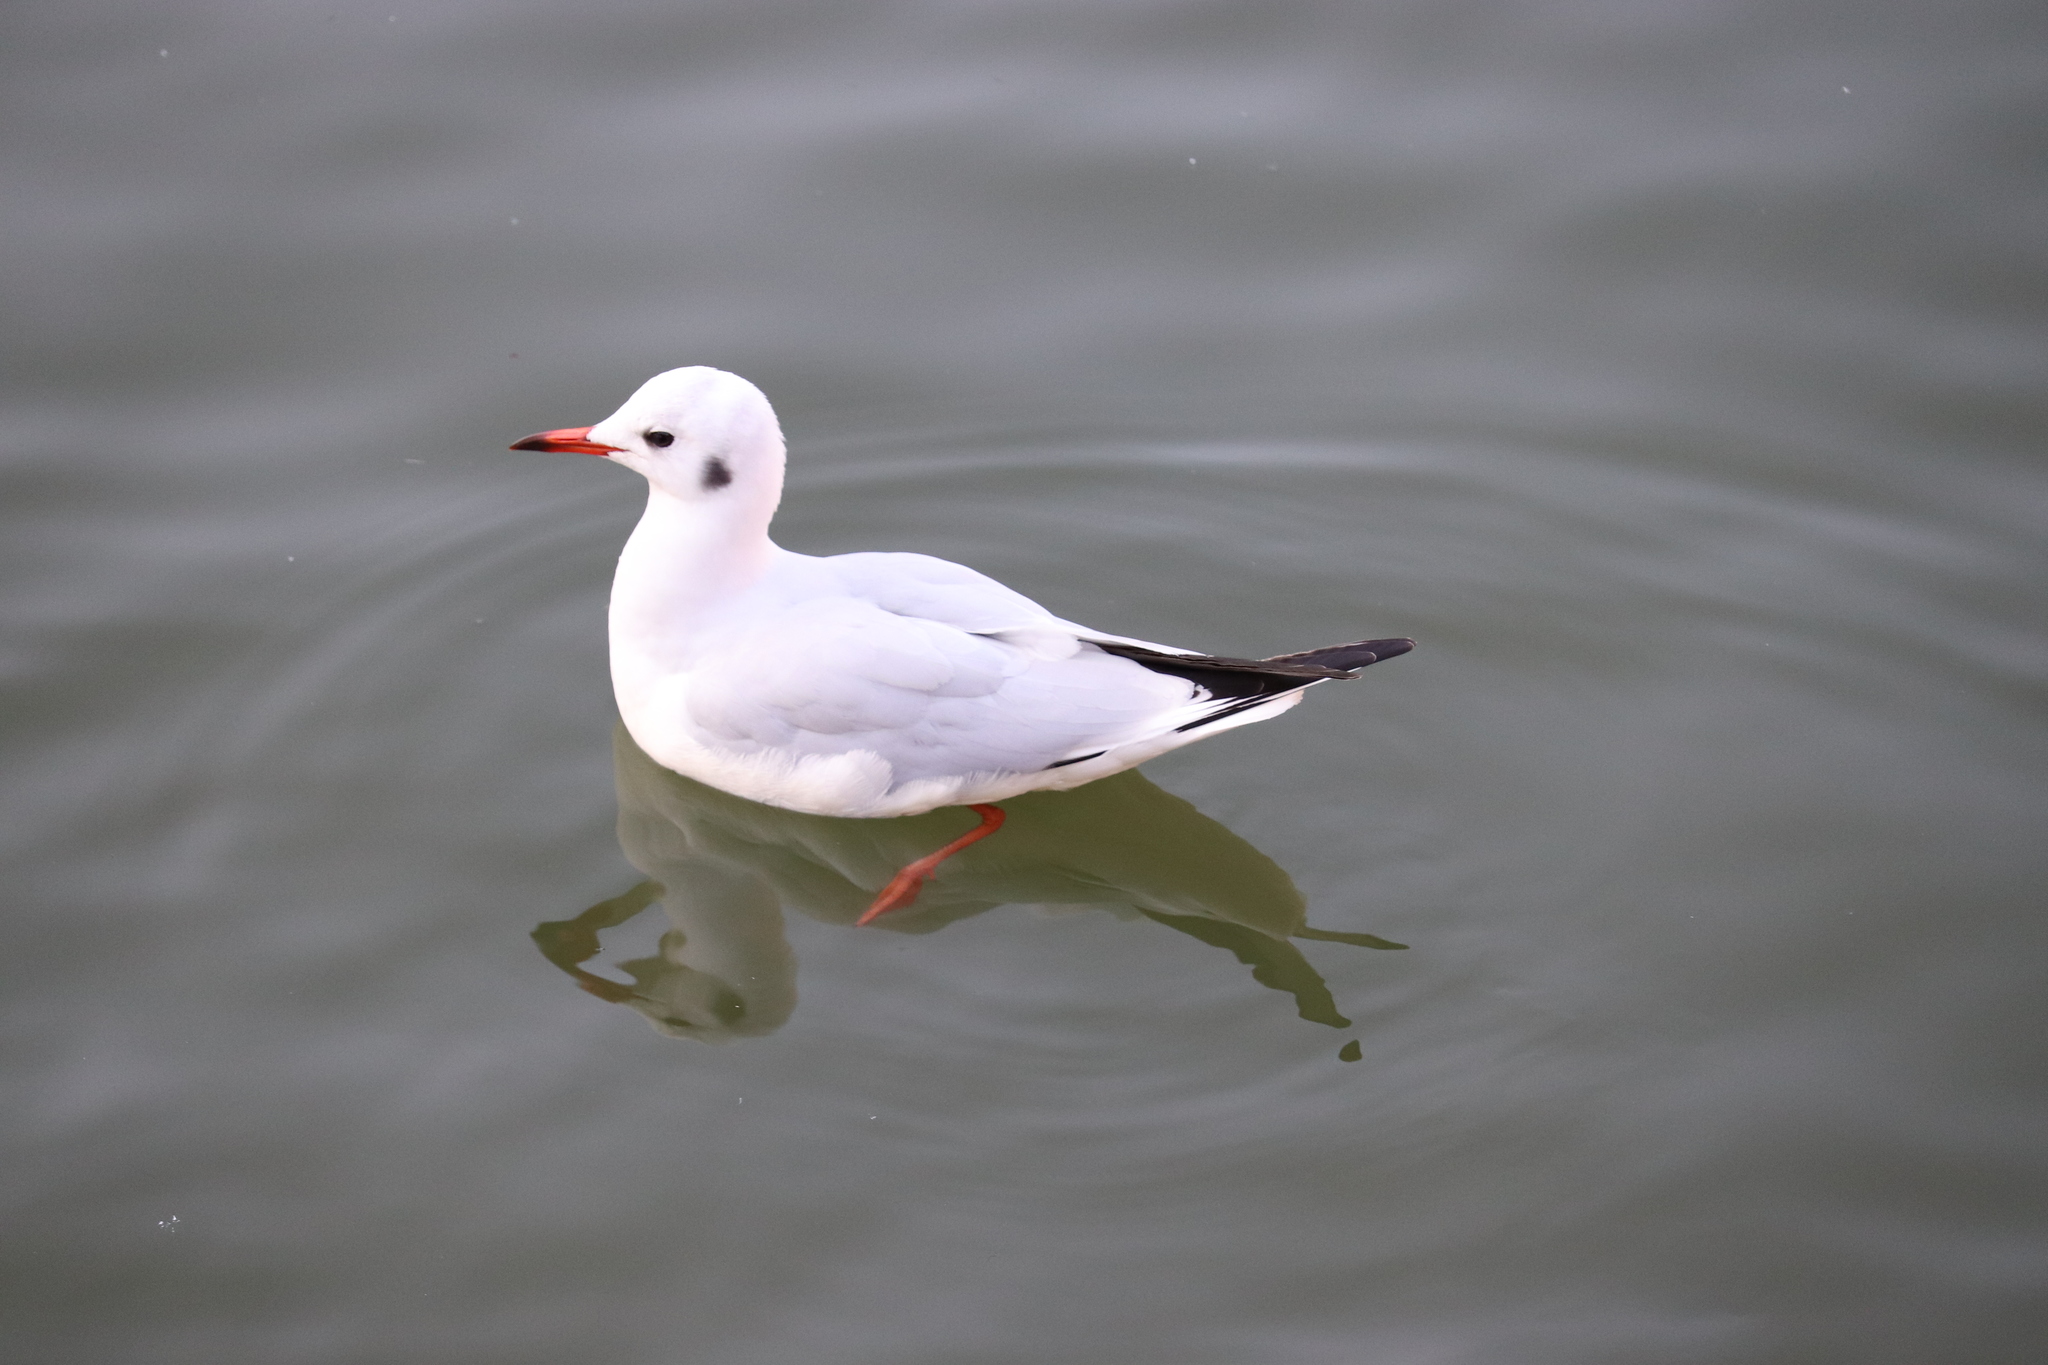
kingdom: Animalia
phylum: Chordata
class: Aves
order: Charadriiformes
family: Laridae
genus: Chroicocephalus
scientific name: Chroicocephalus ridibundus
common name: Black-headed gull
